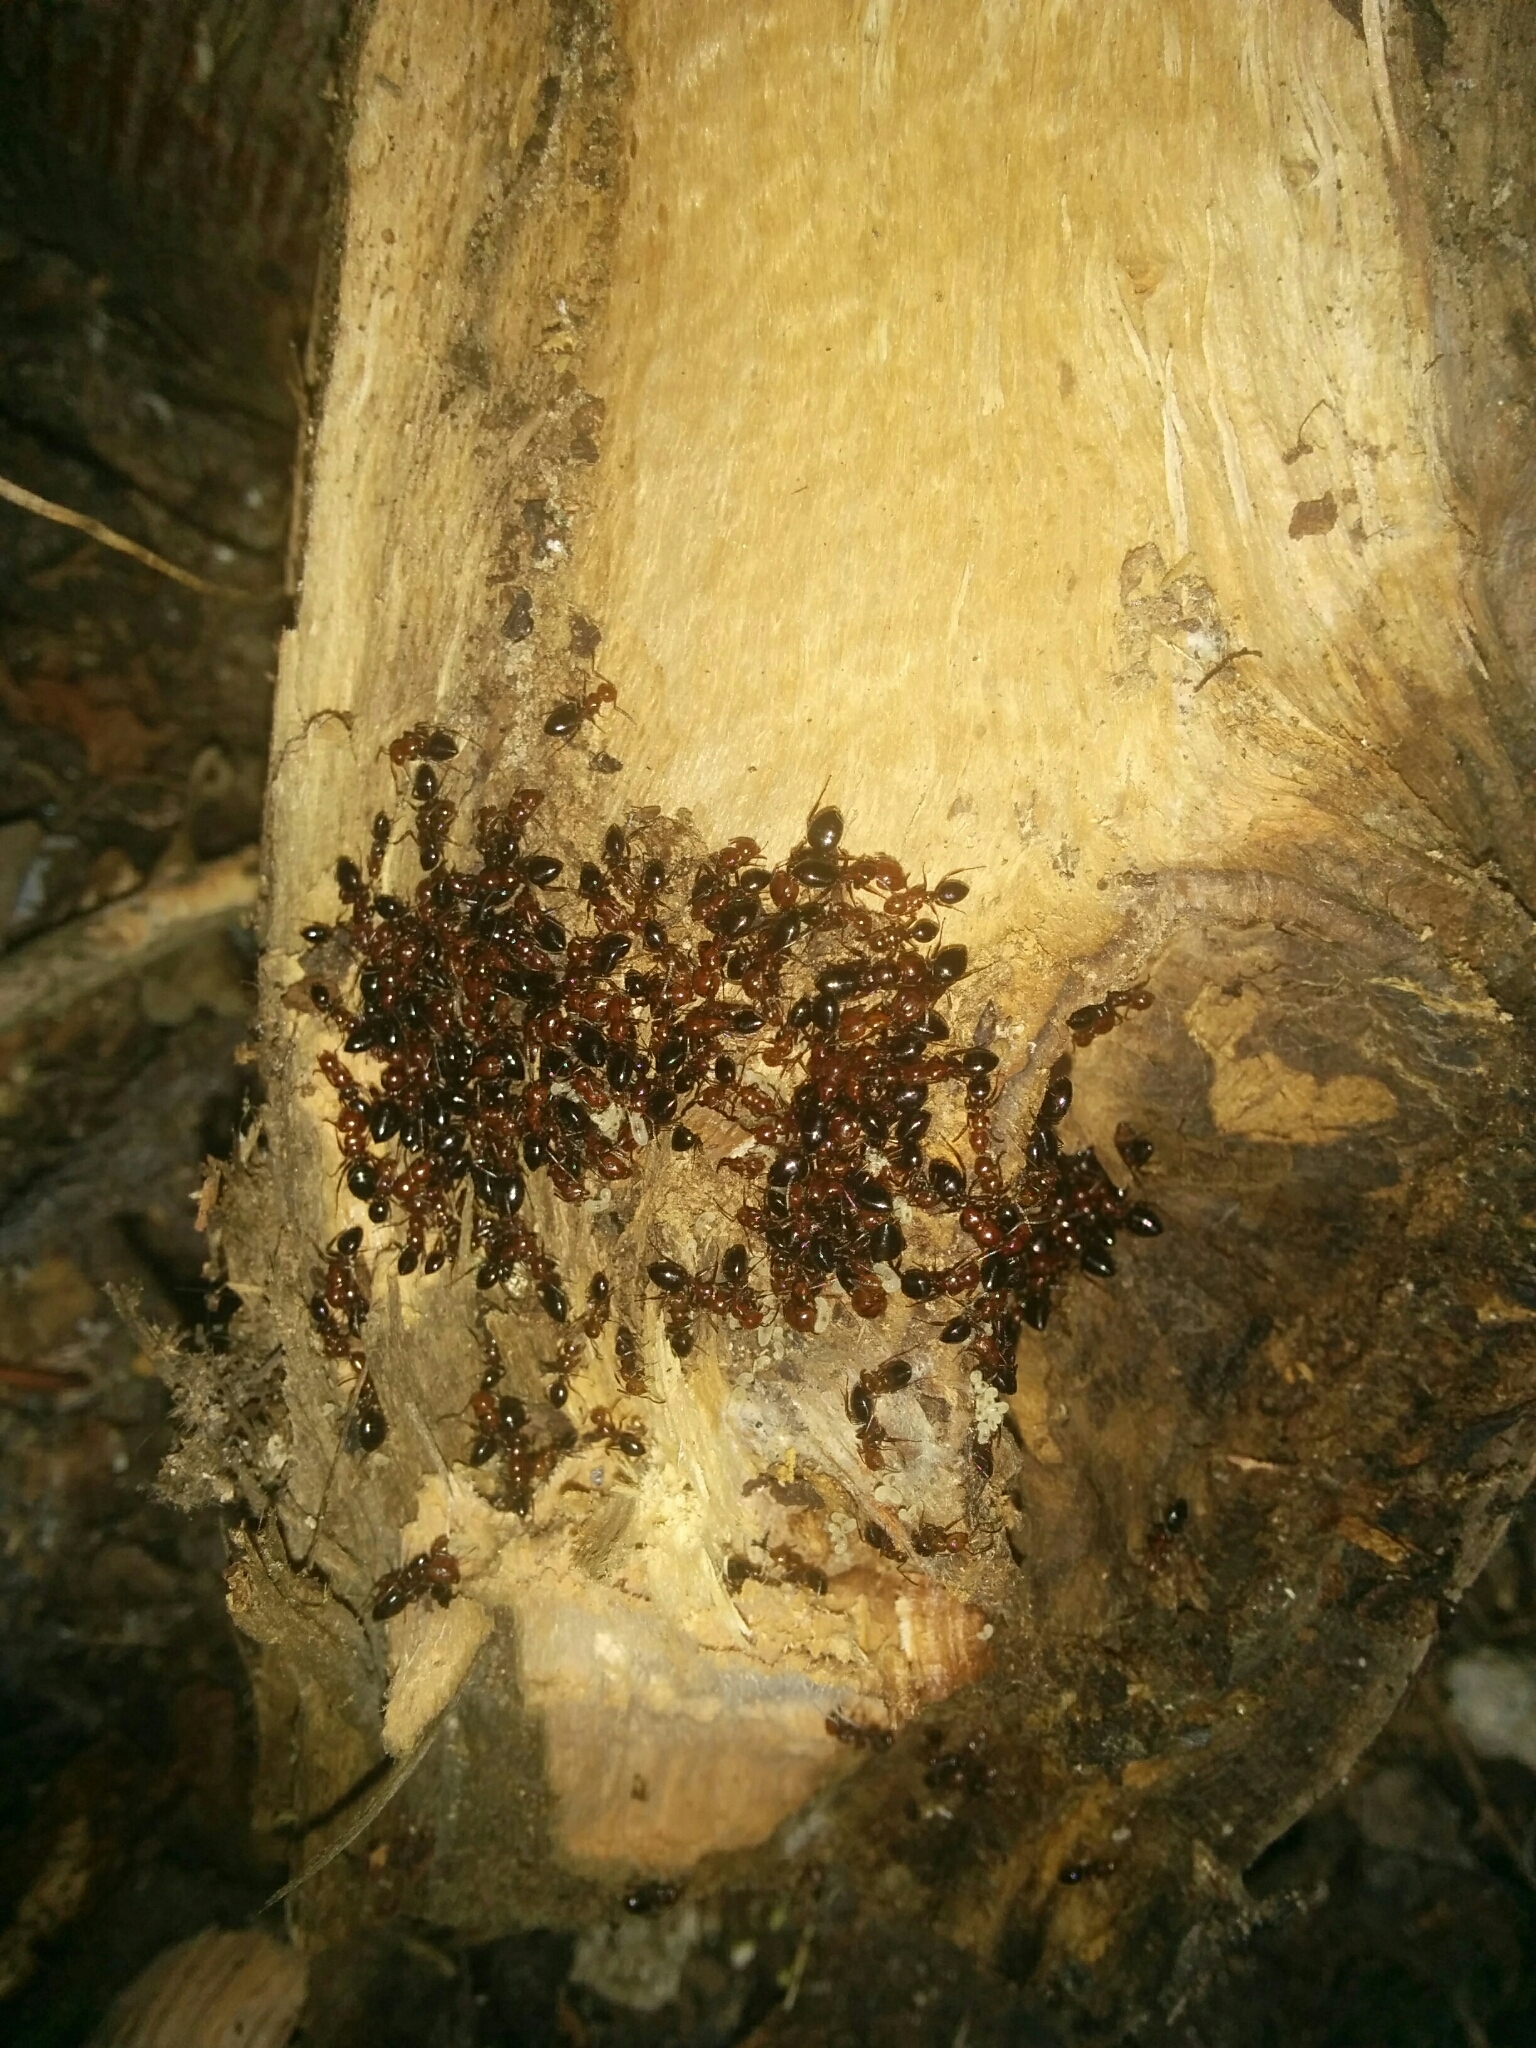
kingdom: Animalia
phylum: Arthropoda
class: Insecta
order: Hymenoptera
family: Formicidae
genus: Camponotus
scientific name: Camponotus lateralis
